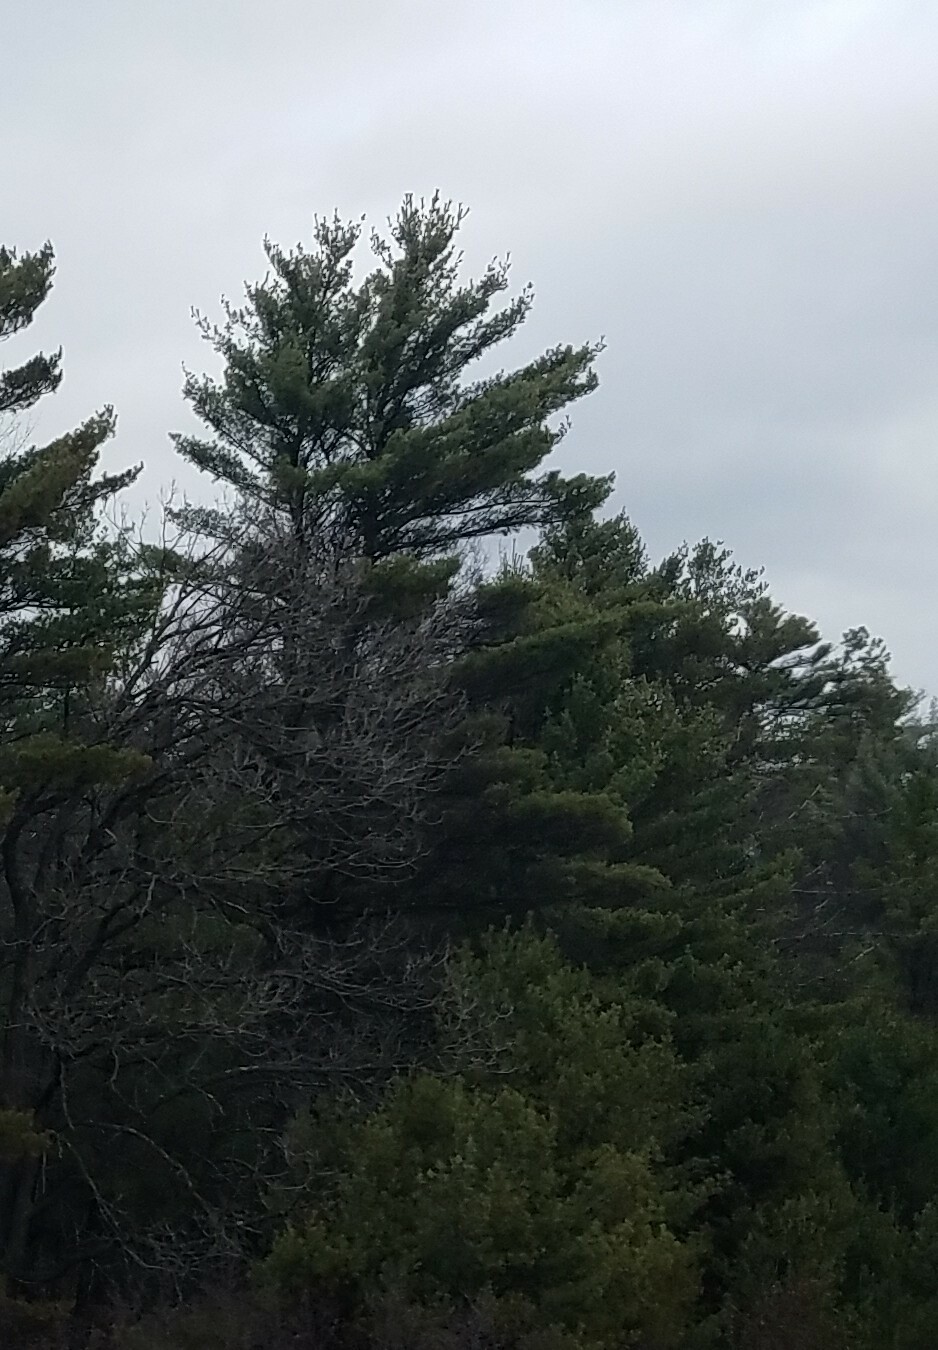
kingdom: Plantae
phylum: Tracheophyta
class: Pinopsida
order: Pinales
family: Pinaceae
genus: Pinus
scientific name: Pinus strobus
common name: Weymouth pine
